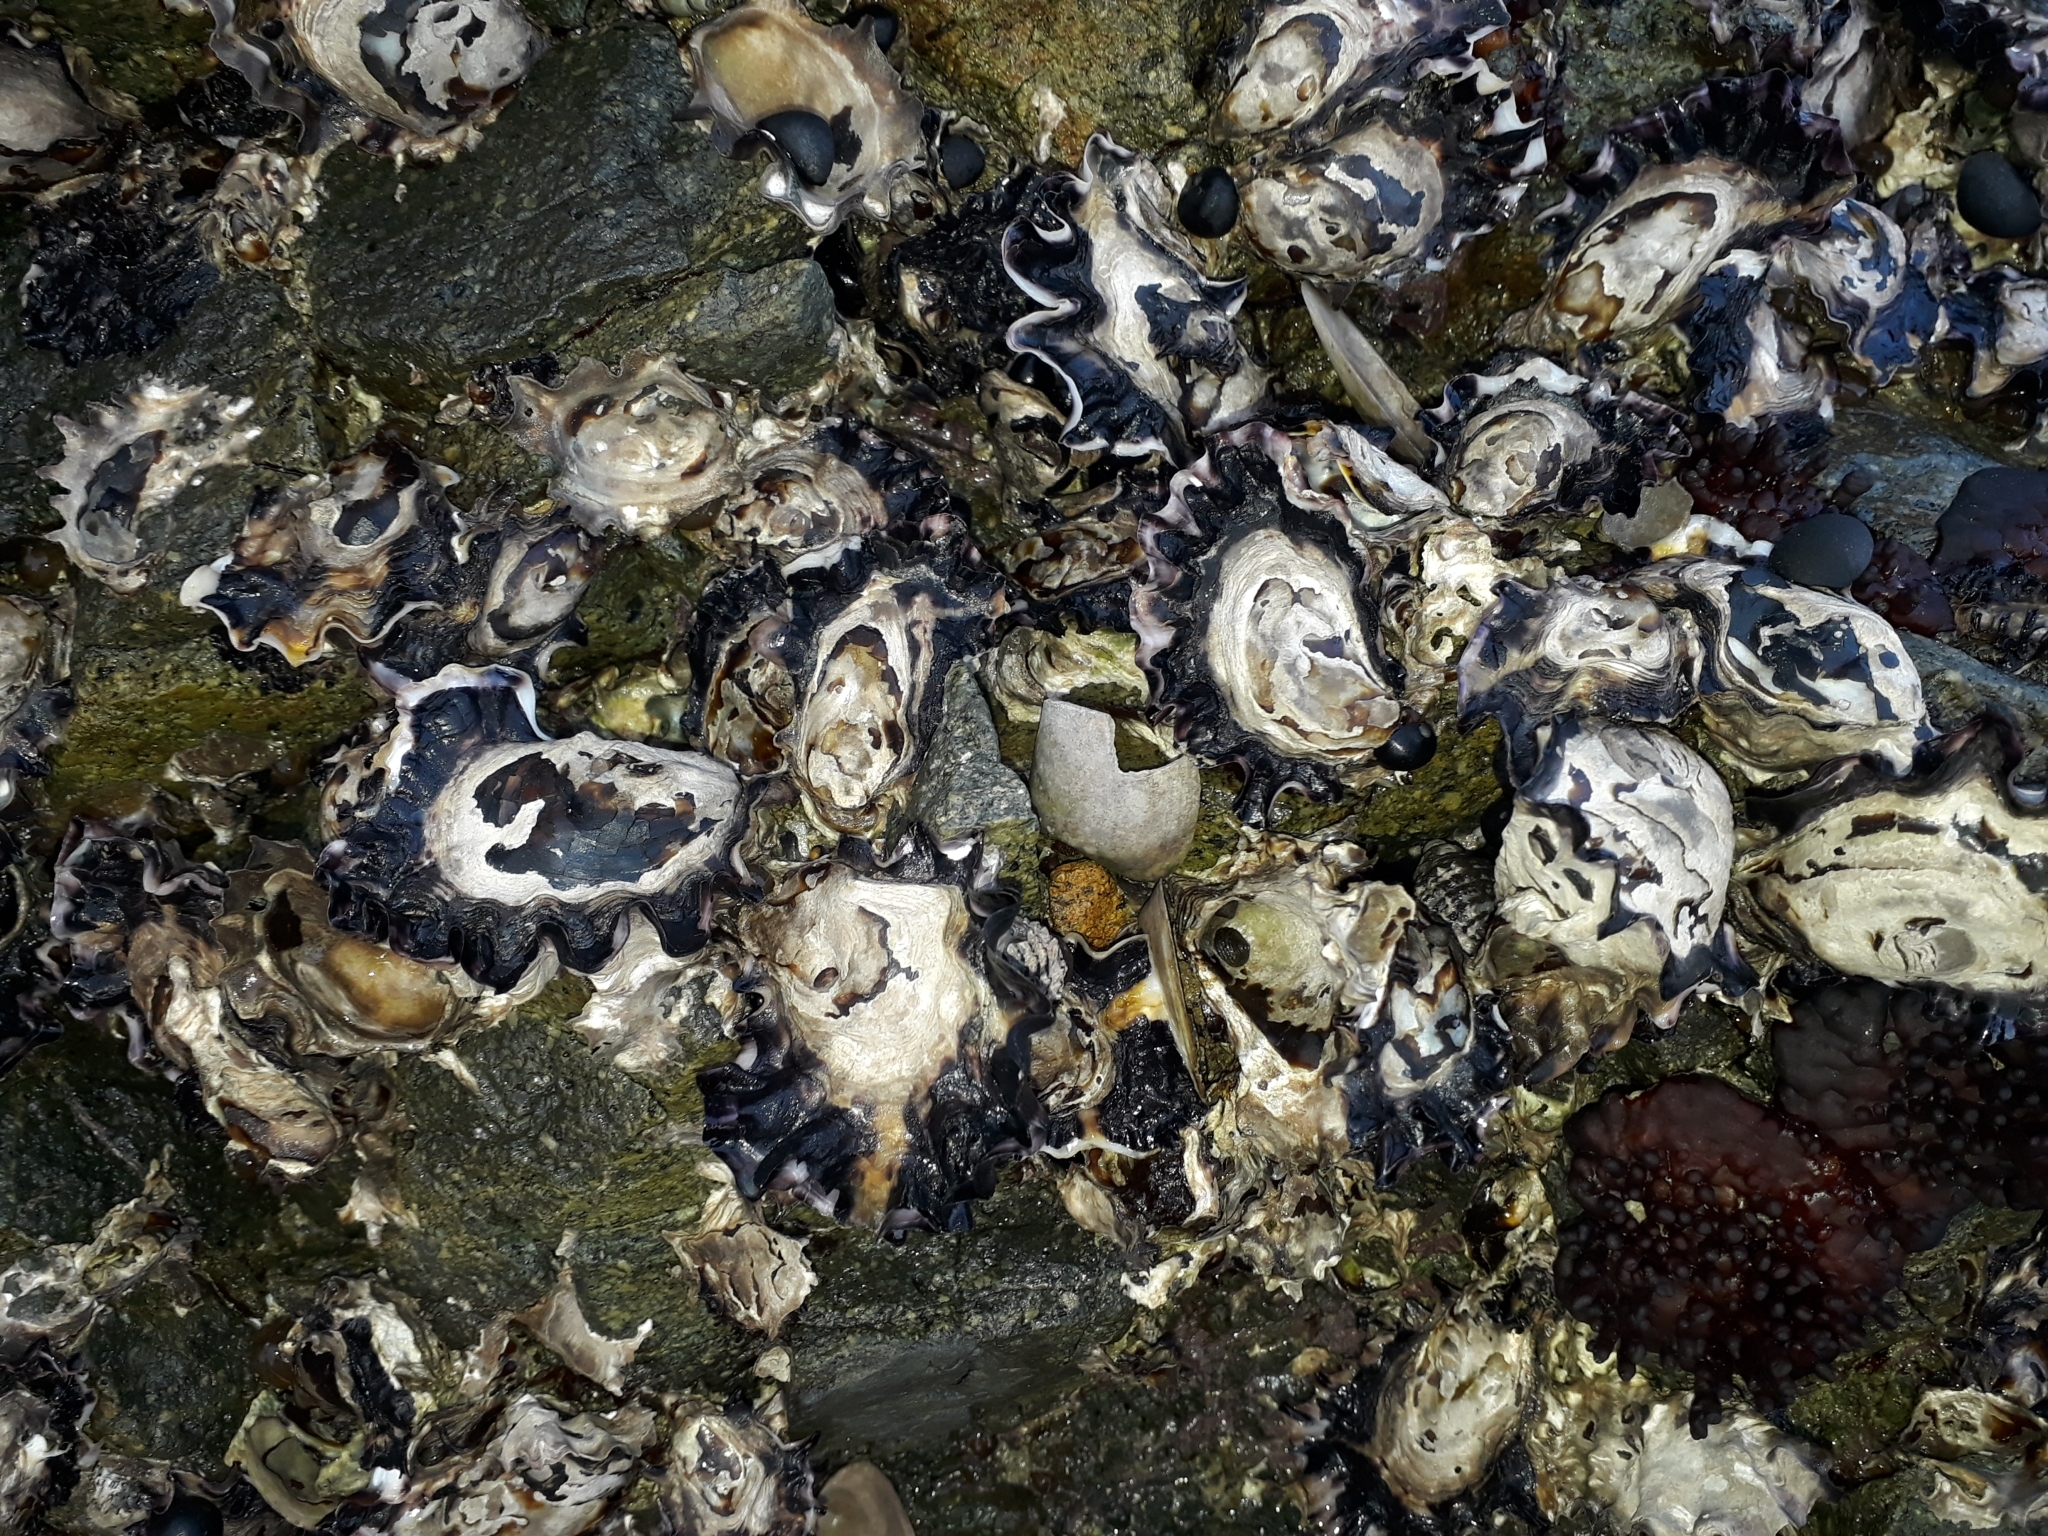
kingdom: Animalia
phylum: Mollusca
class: Bivalvia
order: Ostreida
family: Ostreidae
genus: Saccostrea
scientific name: Saccostrea glomerata
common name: Sydney cupped oyster
